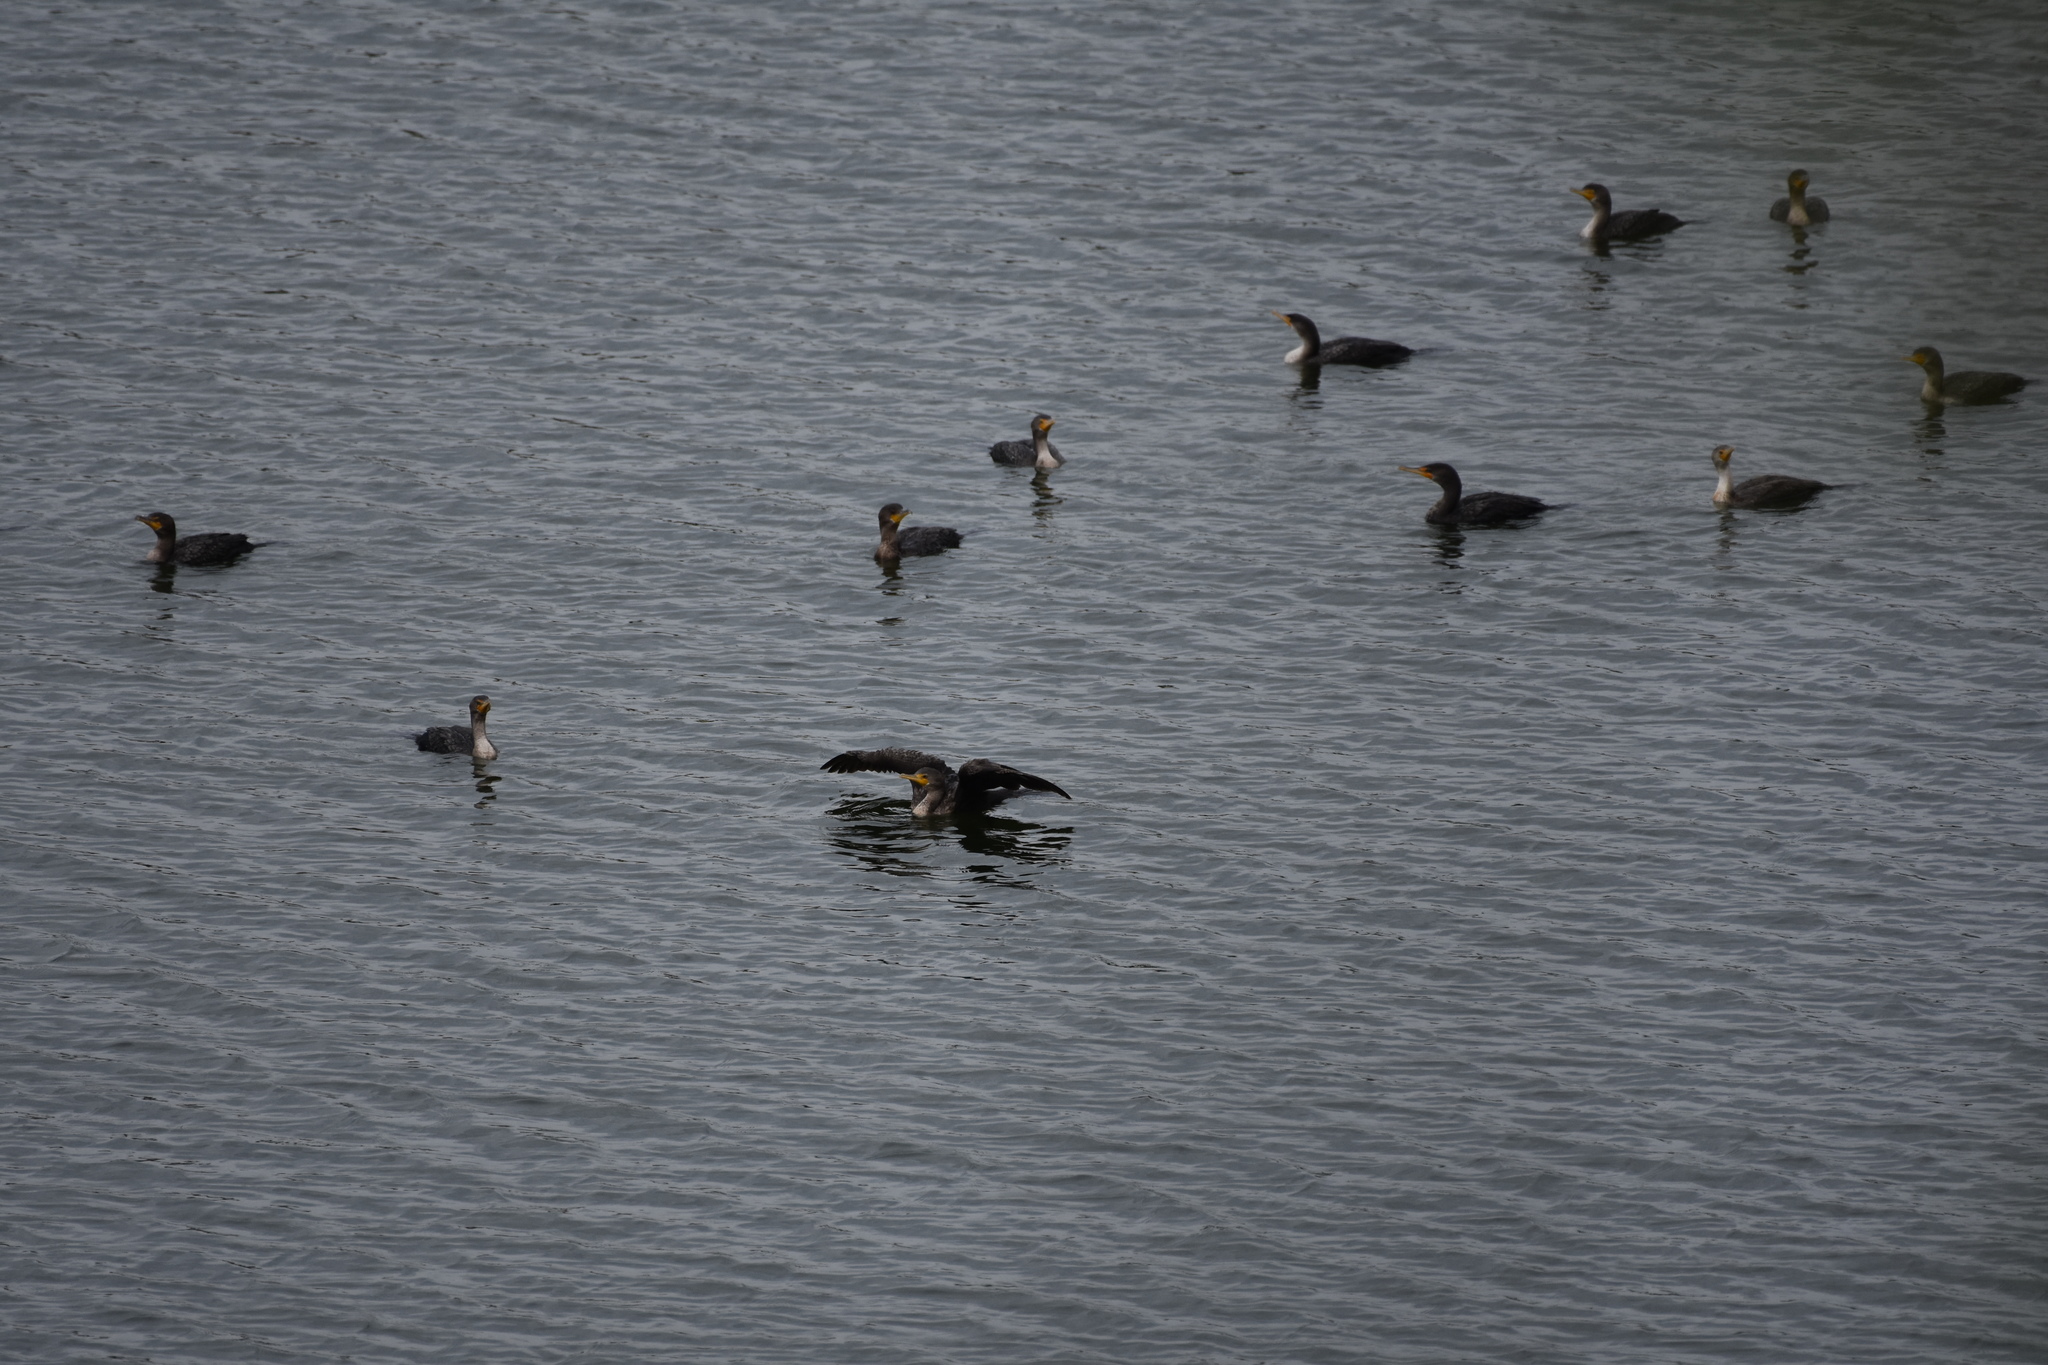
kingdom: Animalia
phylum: Chordata
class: Aves
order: Suliformes
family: Phalacrocoracidae
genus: Phalacrocorax
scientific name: Phalacrocorax auritus
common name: Double-crested cormorant
